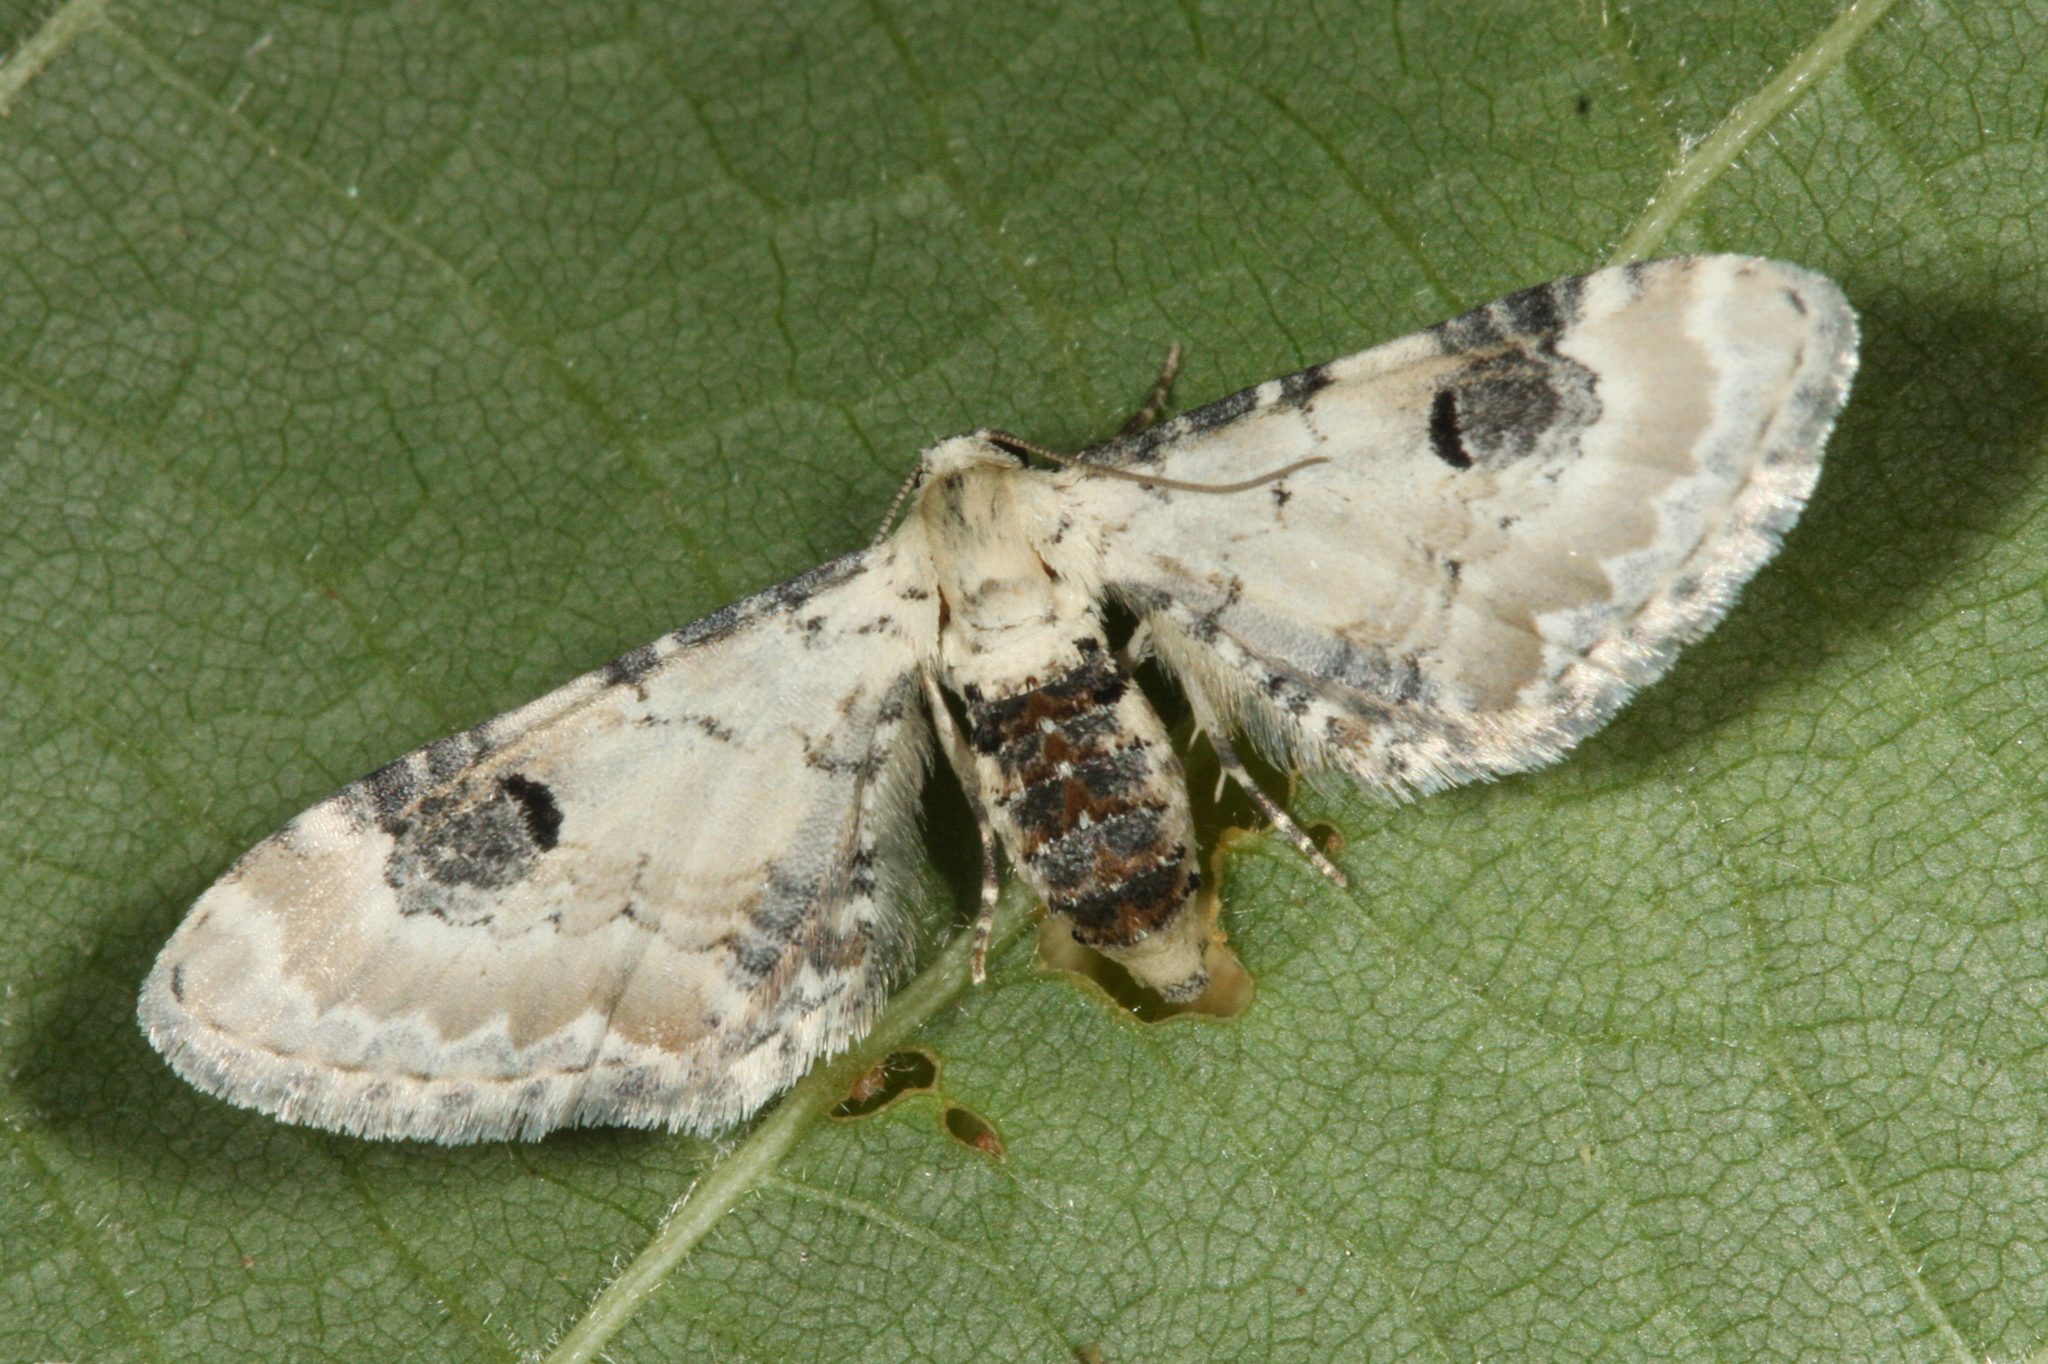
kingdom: Animalia
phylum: Arthropoda
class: Insecta
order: Lepidoptera
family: Geometridae
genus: Eupithecia
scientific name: Eupithecia centaureata
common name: Lime-speck pug
